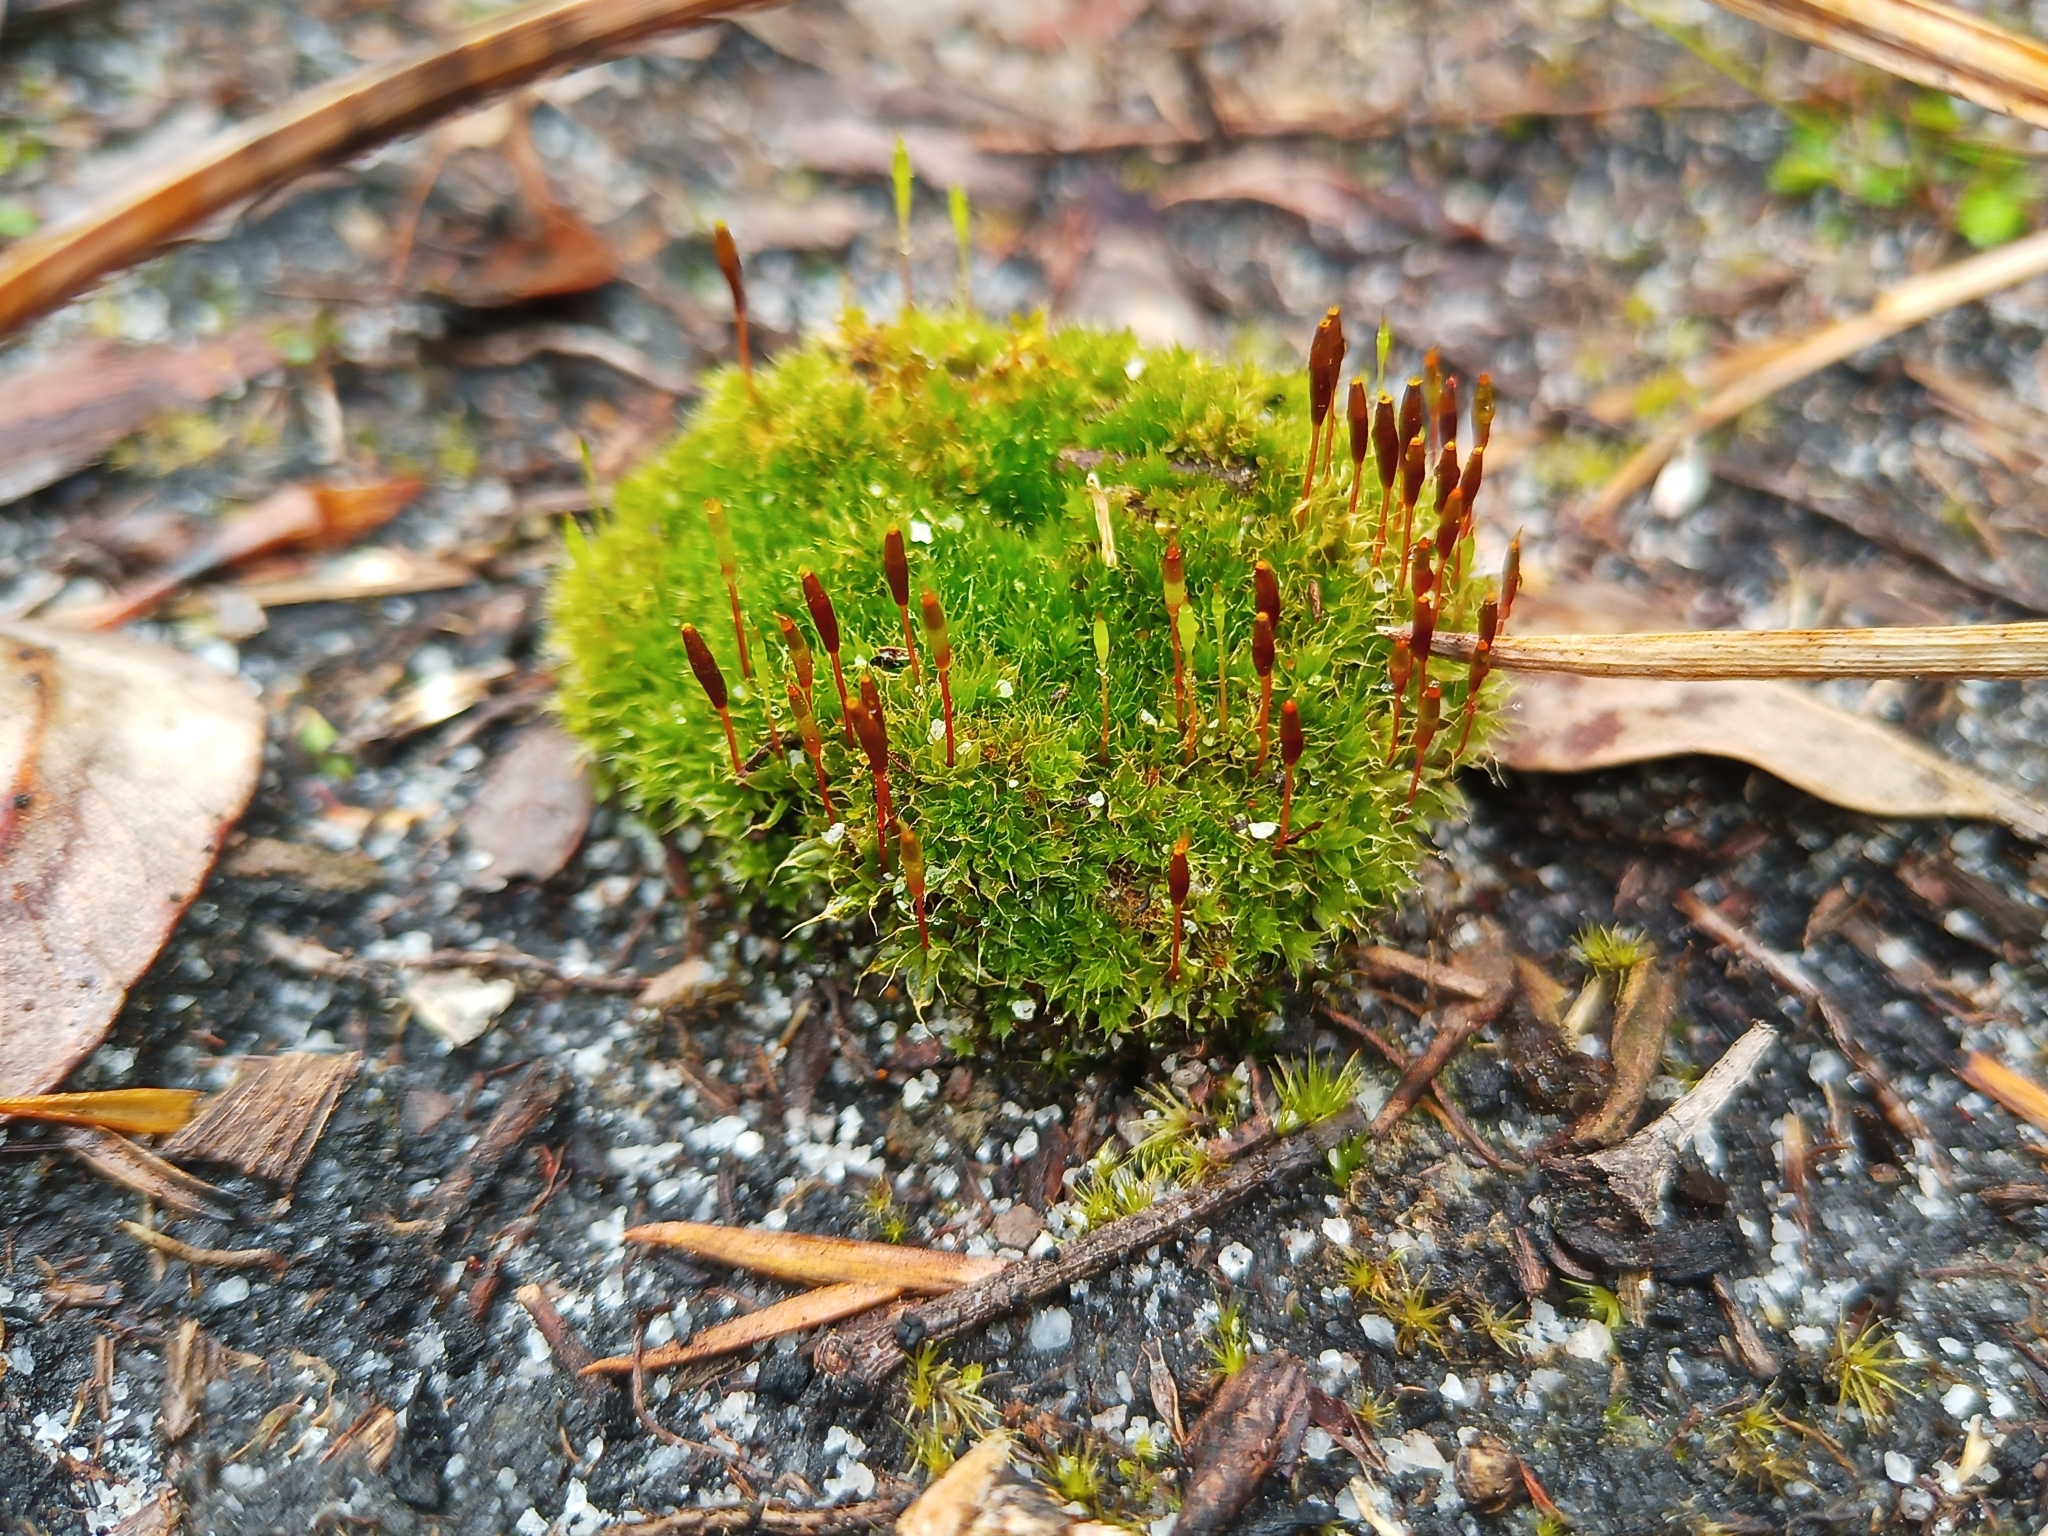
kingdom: Plantae
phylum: Bryophyta
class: Bryopsida
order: Splachnales
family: Splachnaceae
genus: Tayloria
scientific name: Tayloria octoblephara
